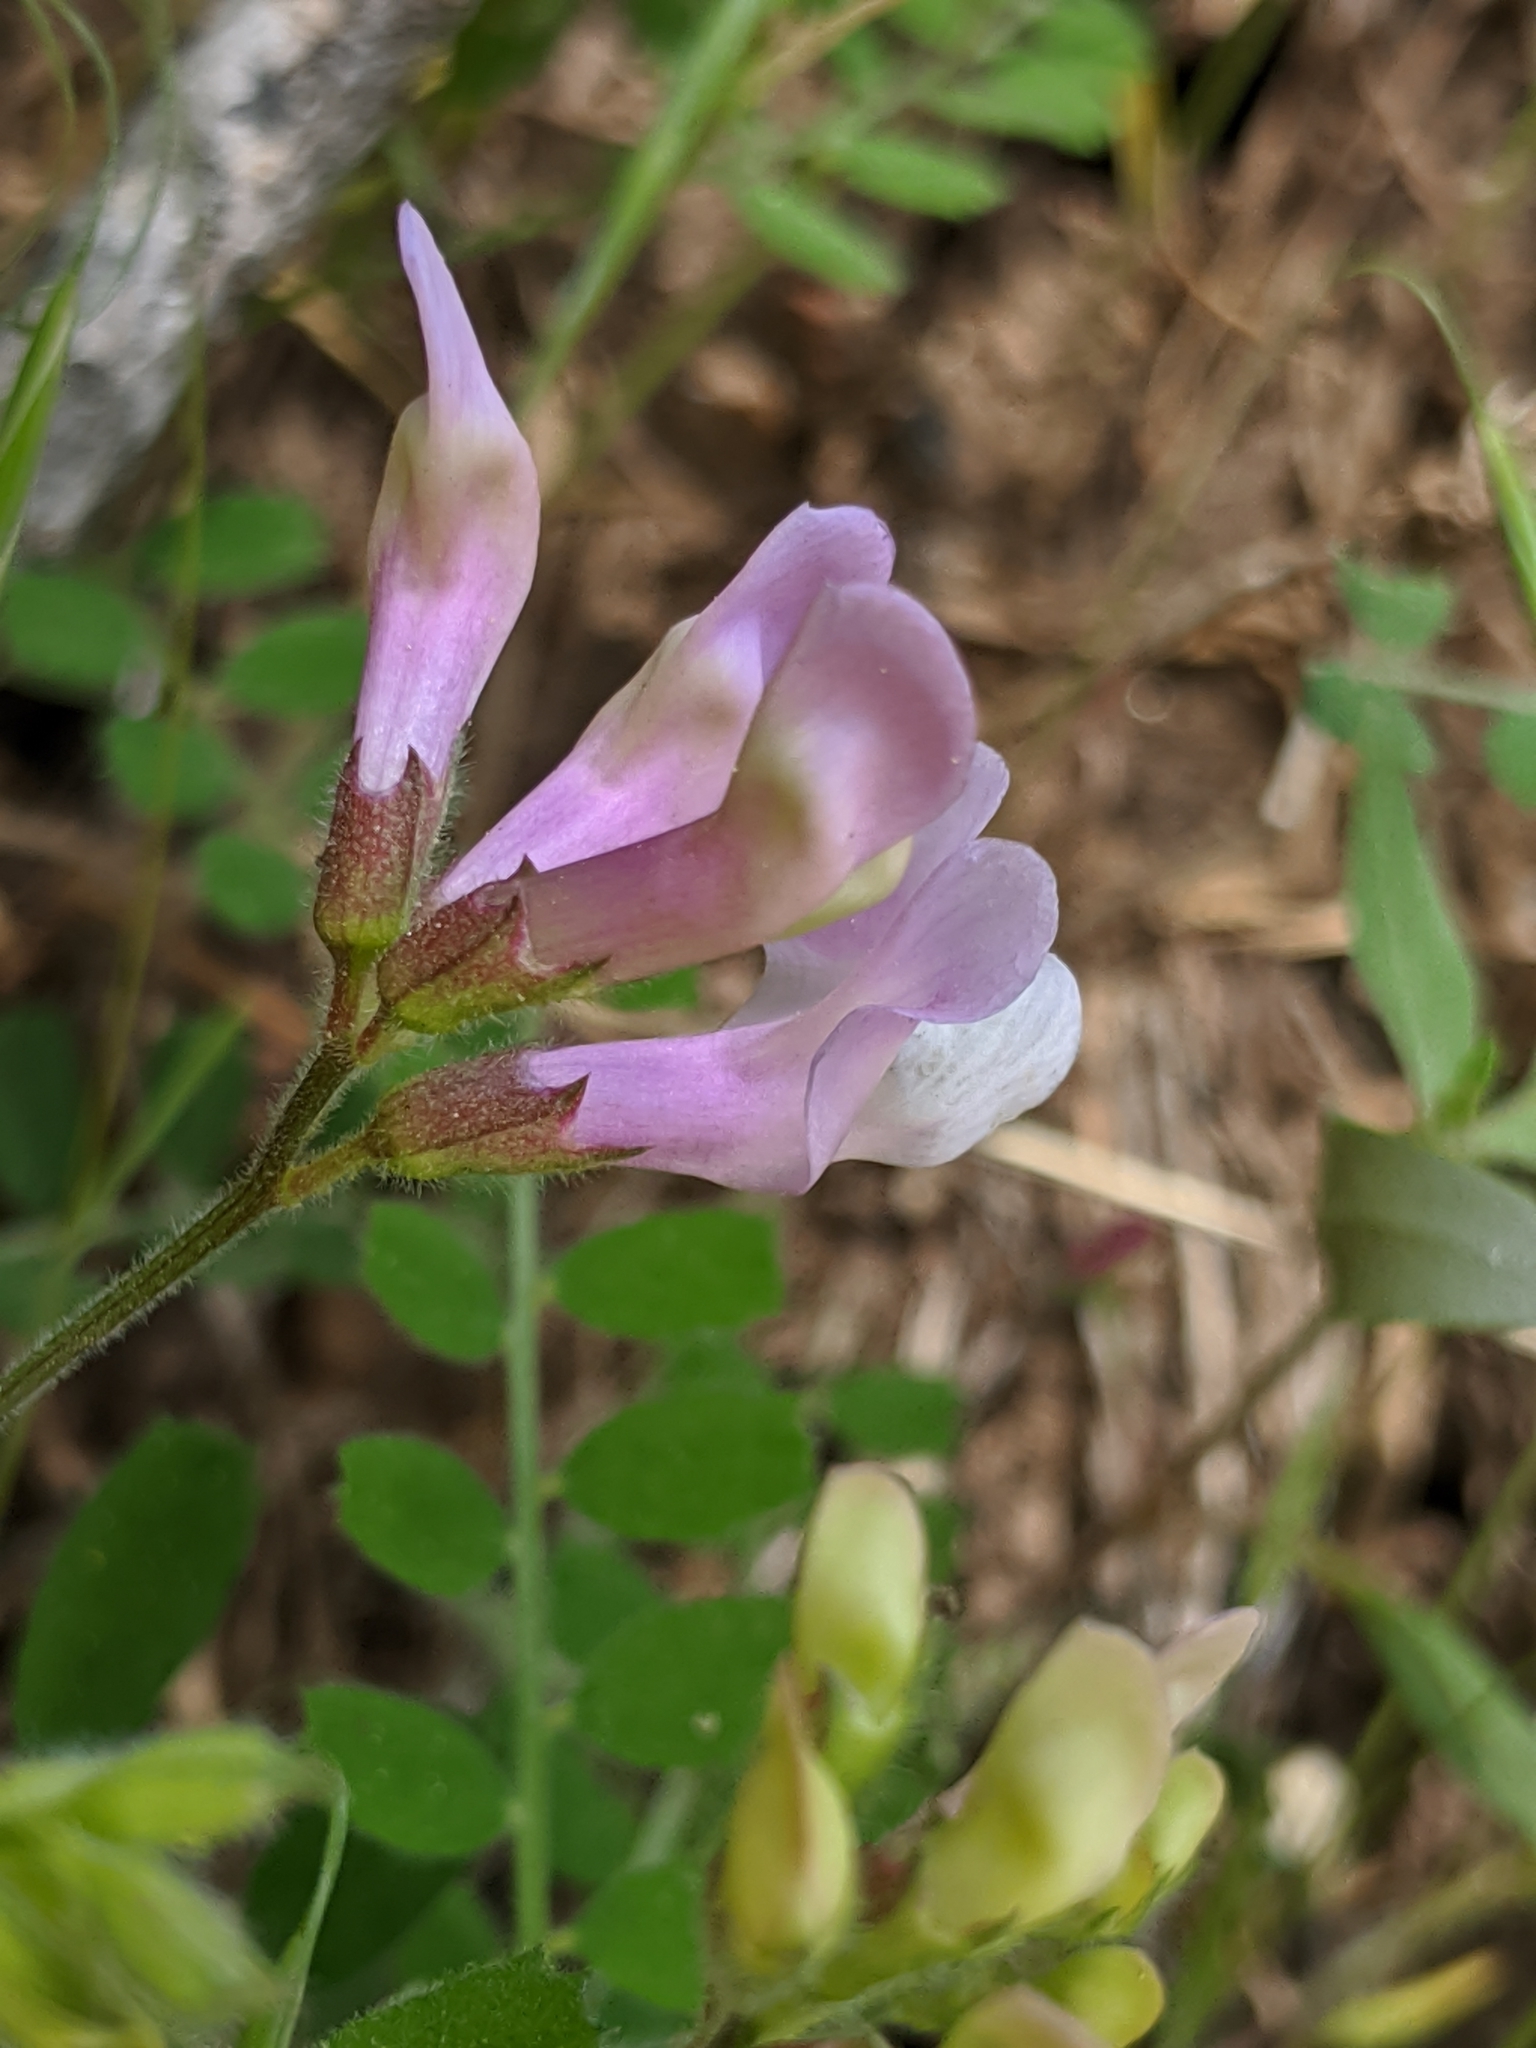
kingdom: Plantae
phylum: Tracheophyta
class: Magnoliopsida
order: Fabales
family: Fabaceae
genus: Lathyrus
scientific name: Lathyrus nevadensis
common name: Sierra nevada peavine
